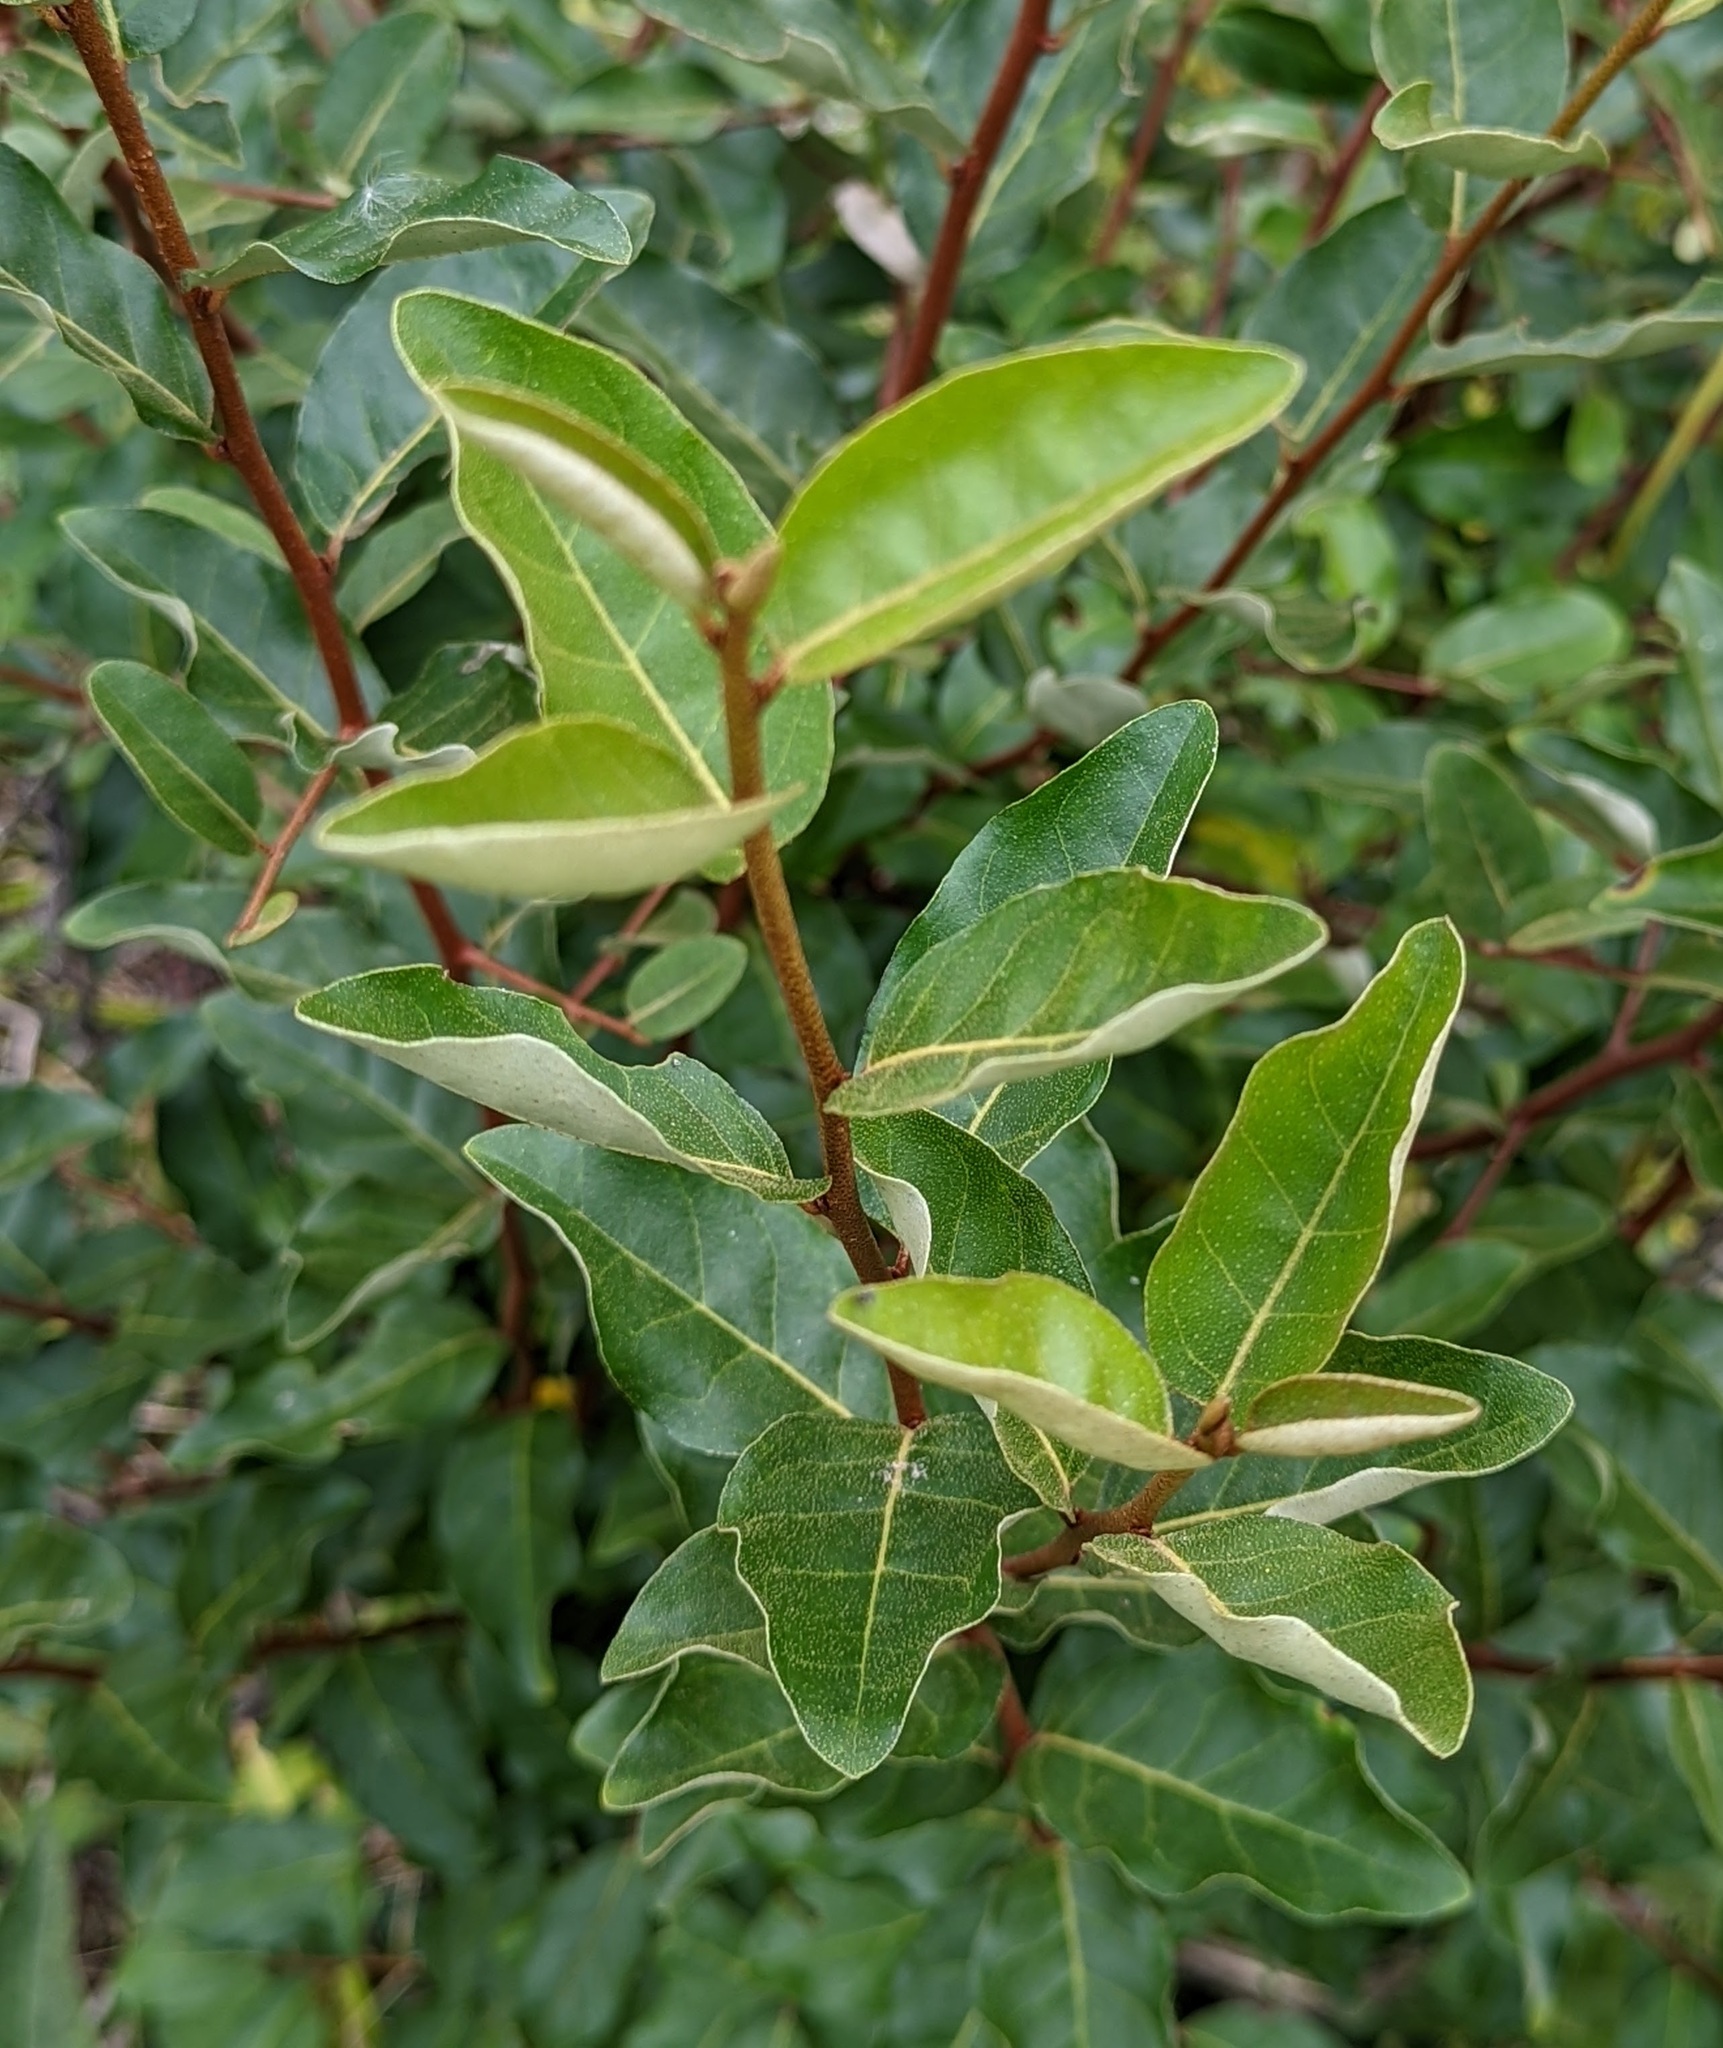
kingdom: Plantae
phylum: Tracheophyta
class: Magnoliopsida
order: Rosales
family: Elaeagnaceae
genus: Elaeagnus
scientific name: Elaeagnus umbellata
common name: Autumn olive
